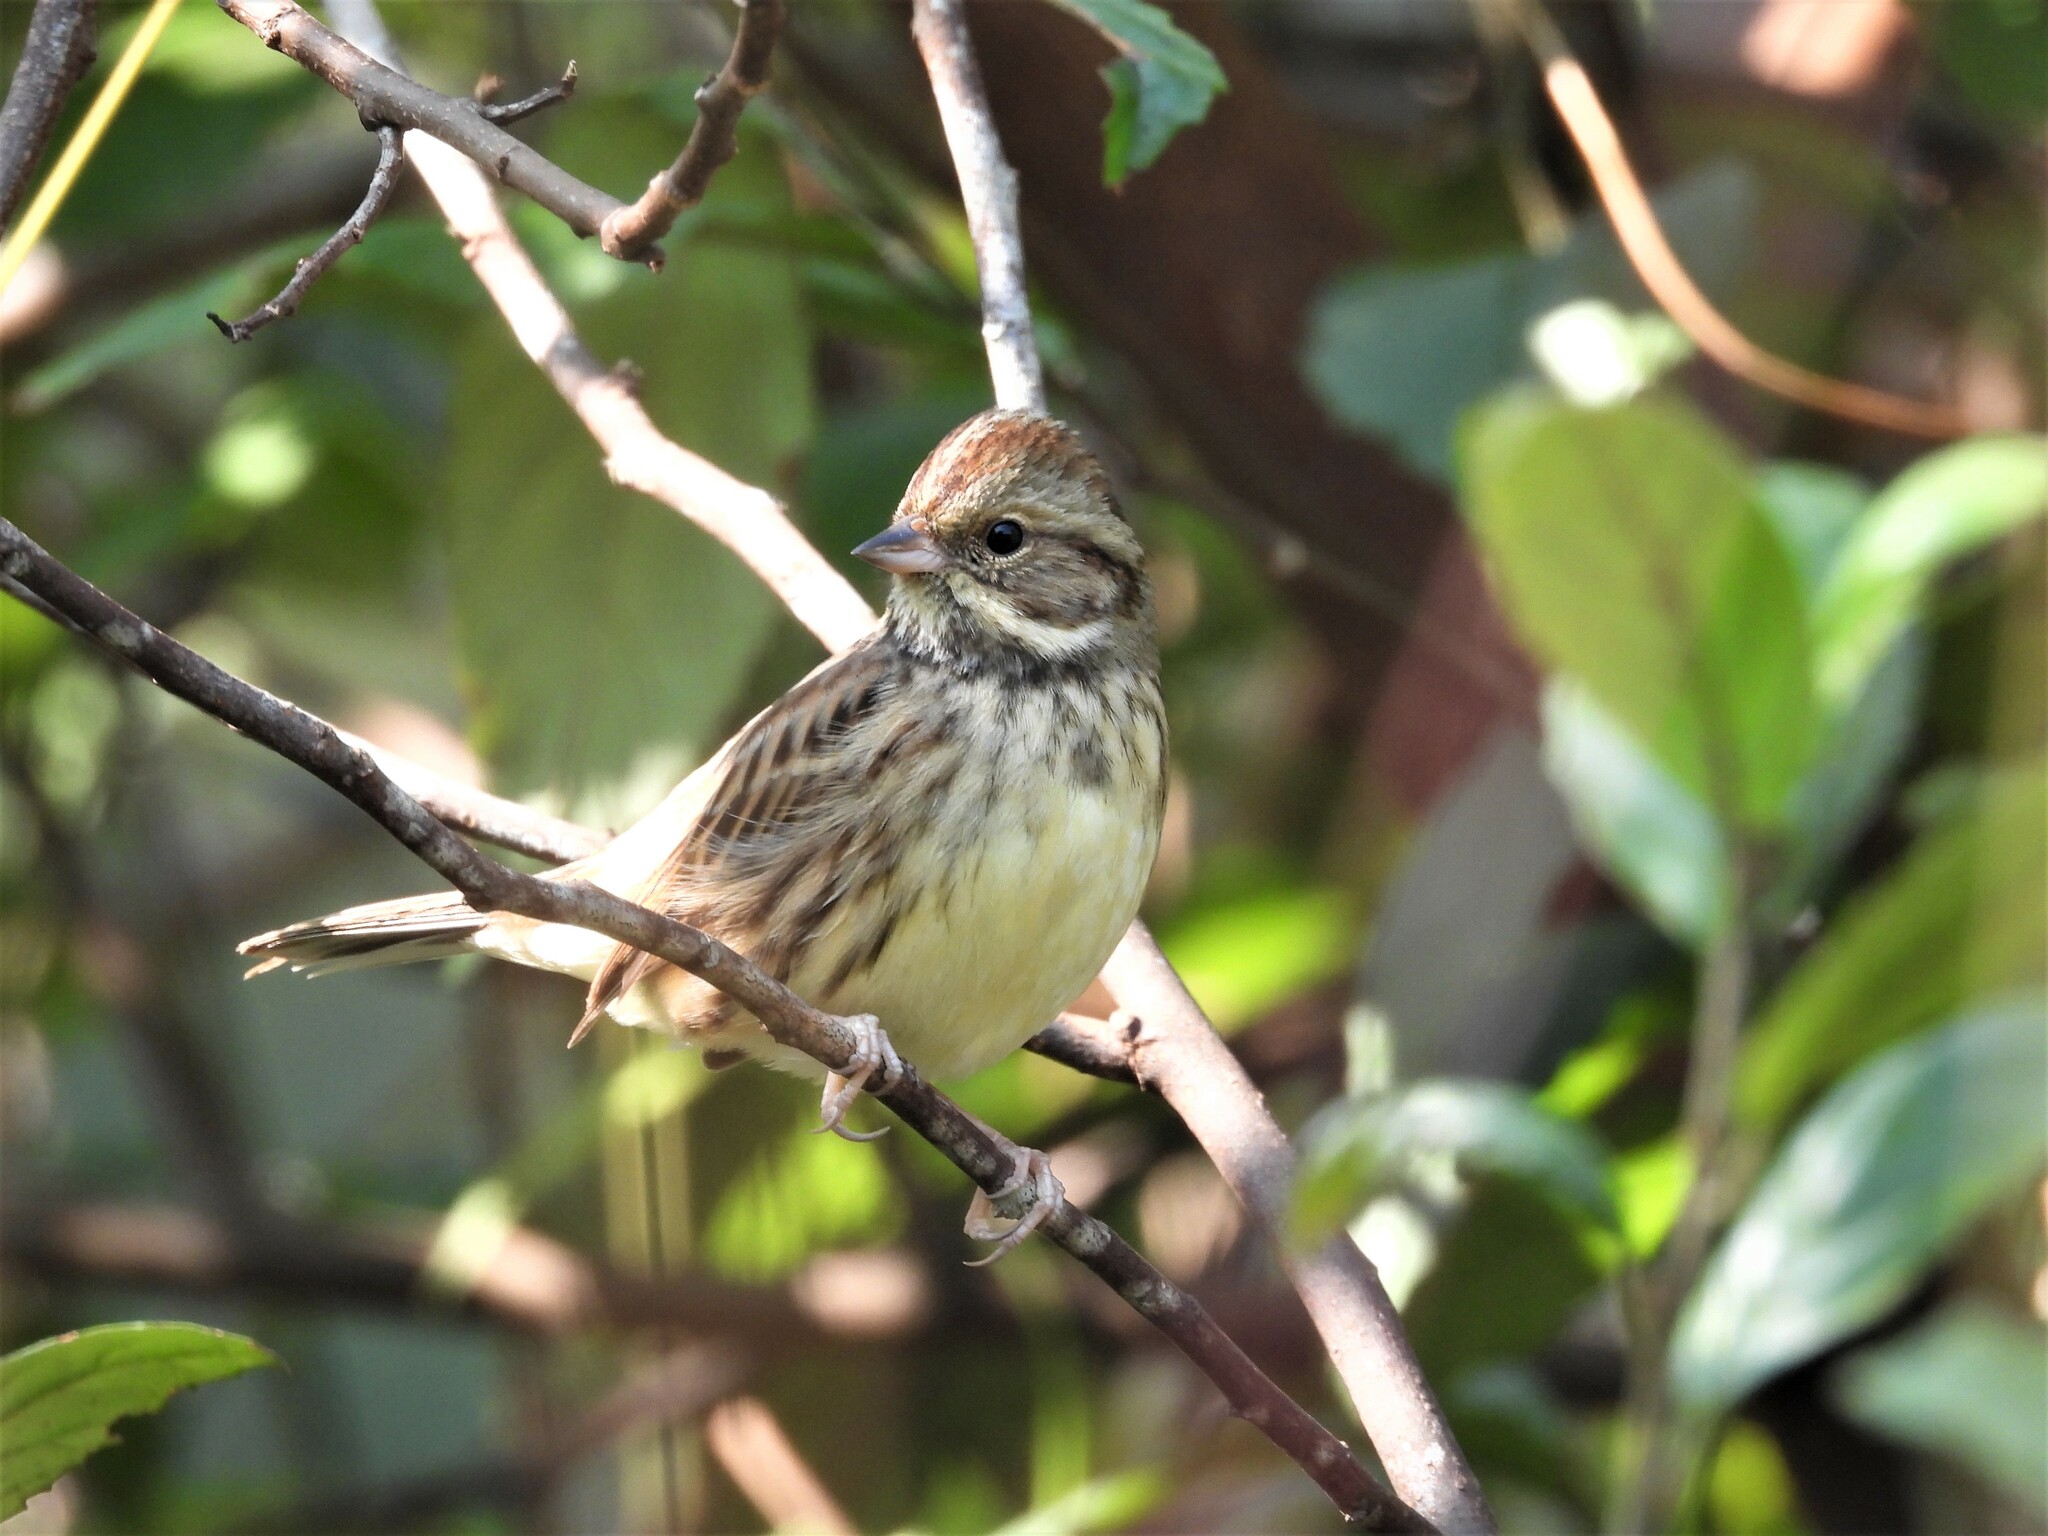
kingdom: Animalia
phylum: Chordata
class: Aves
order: Passeriformes
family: Emberizidae
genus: Emberiza
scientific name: Emberiza spodocephala
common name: Black-faced bunting
